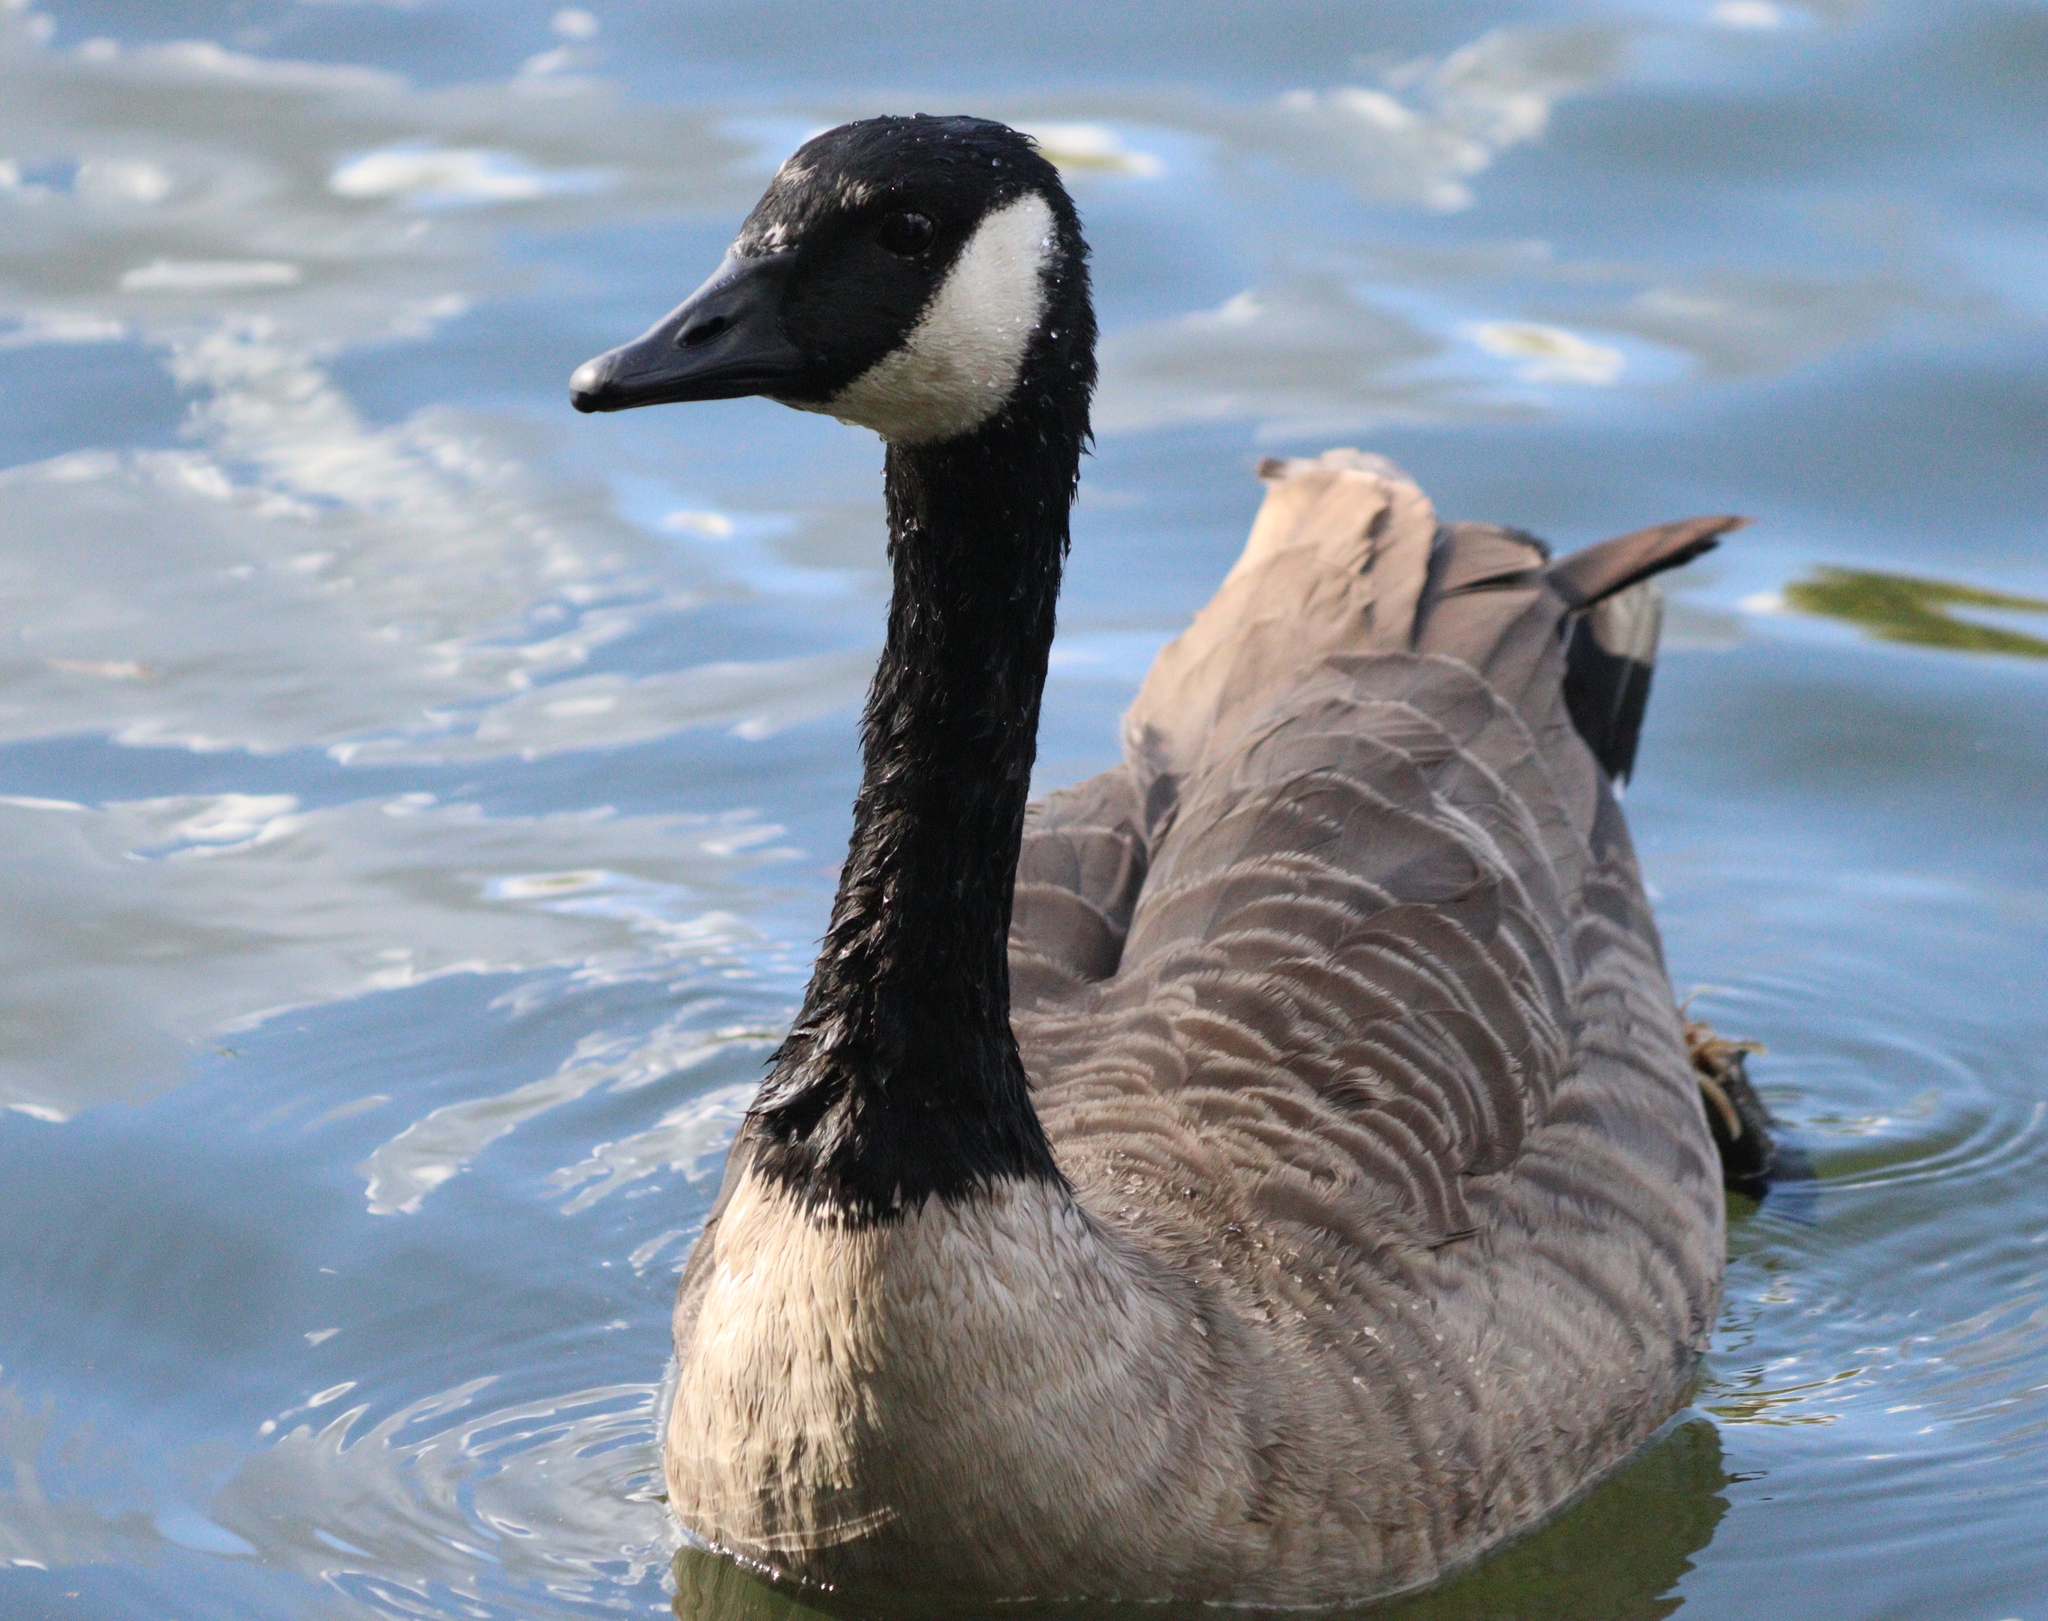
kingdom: Animalia
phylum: Chordata
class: Aves
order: Anseriformes
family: Anatidae
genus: Branta
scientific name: Branta canadensis
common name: Canada goose
